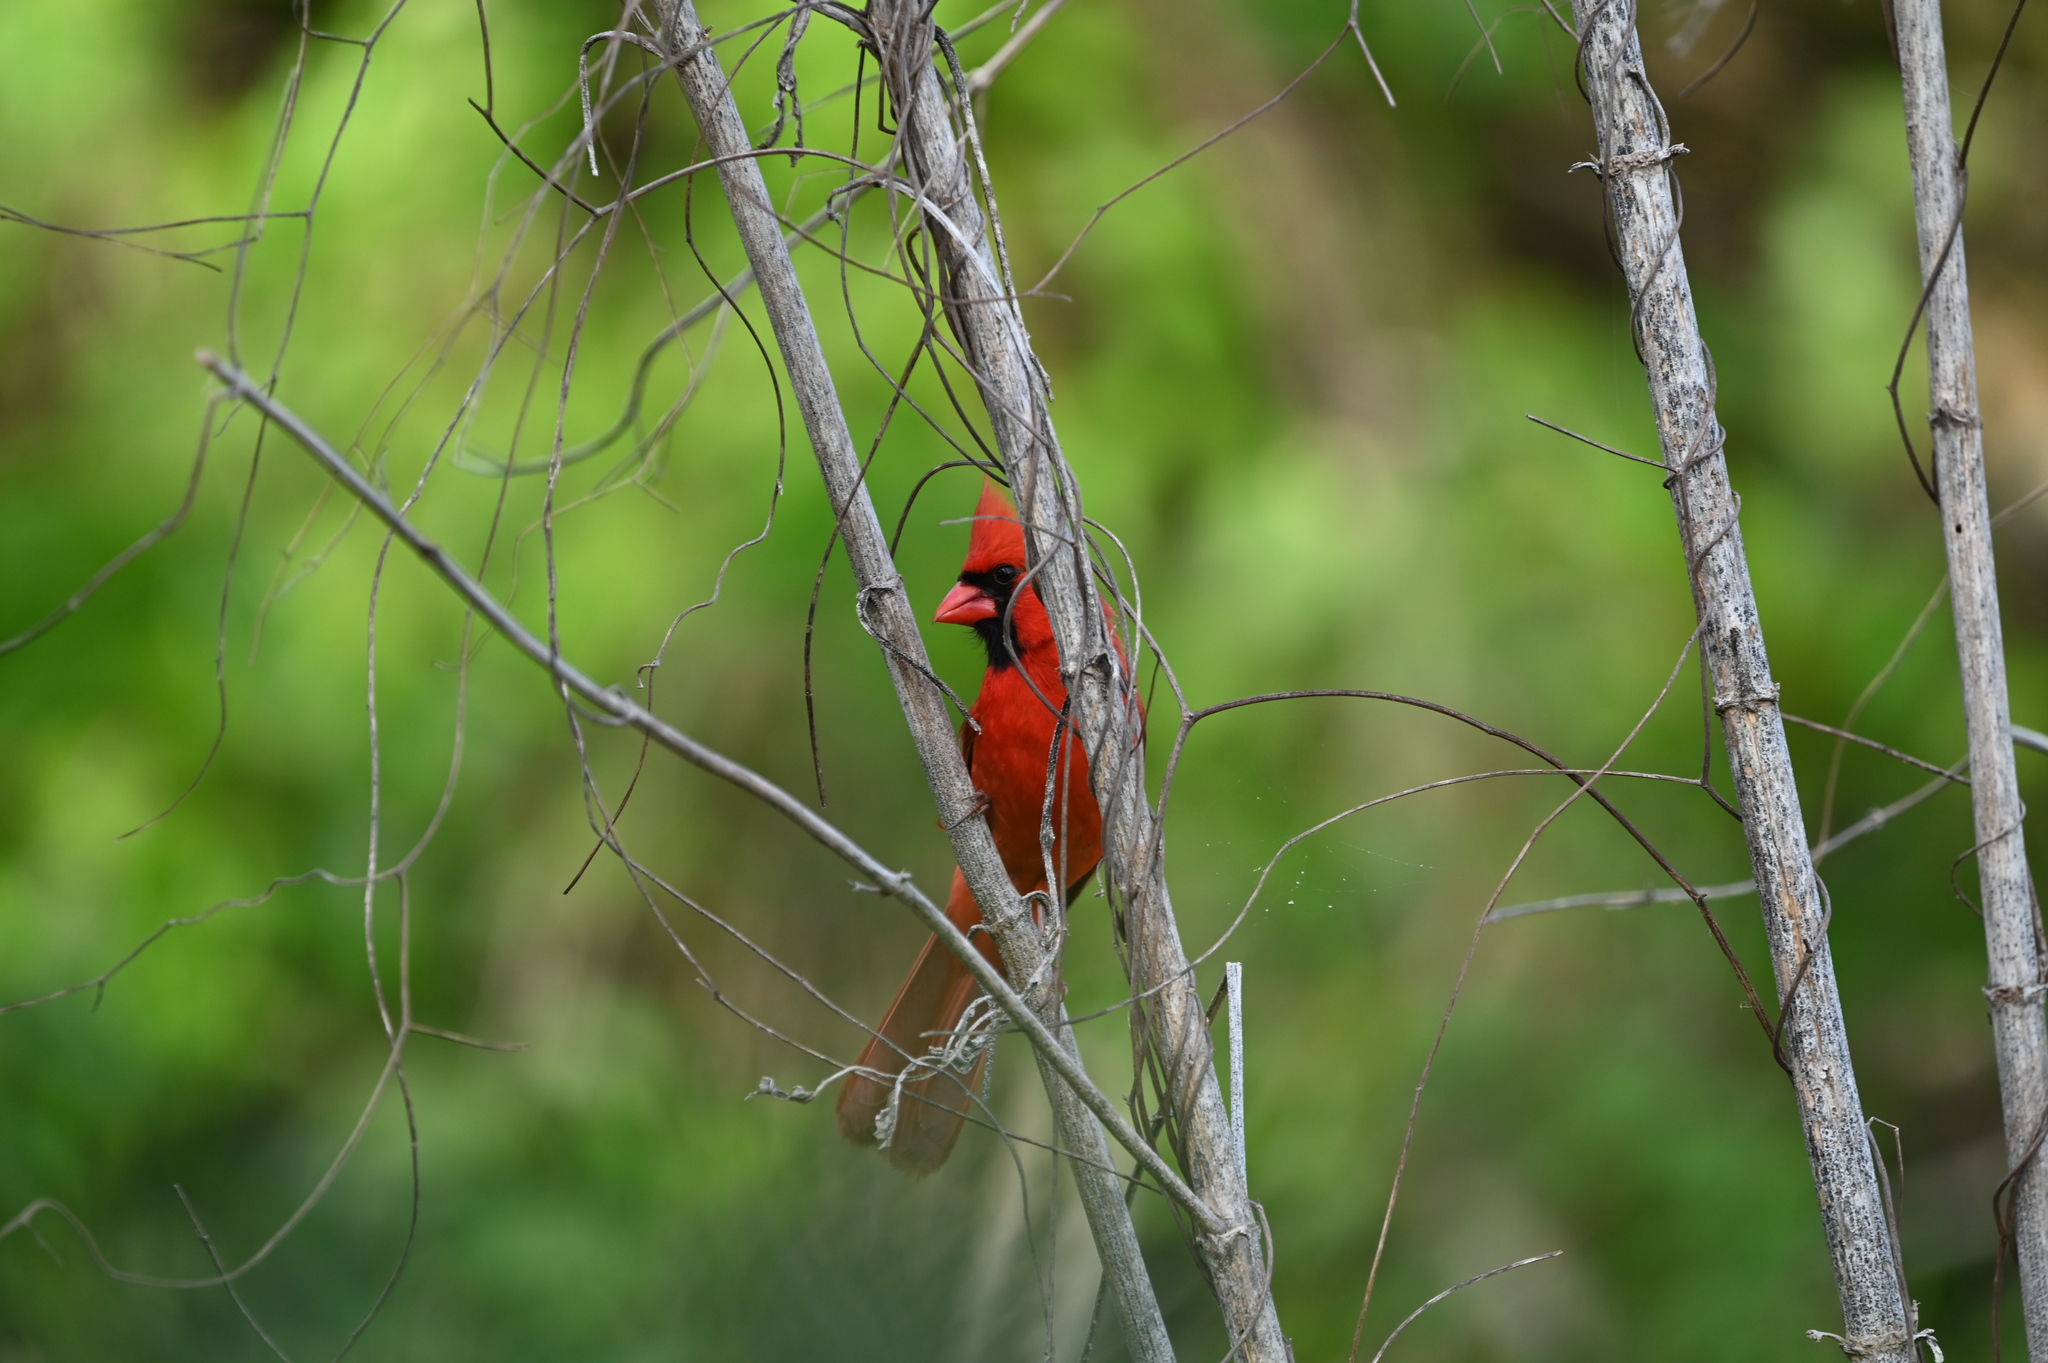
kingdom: Animalia
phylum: Chordata
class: Aves
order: Passeriformes
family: Cardinalidae
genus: Cardinalis
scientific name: Cardinalis cardinalis
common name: Northern cardinal
